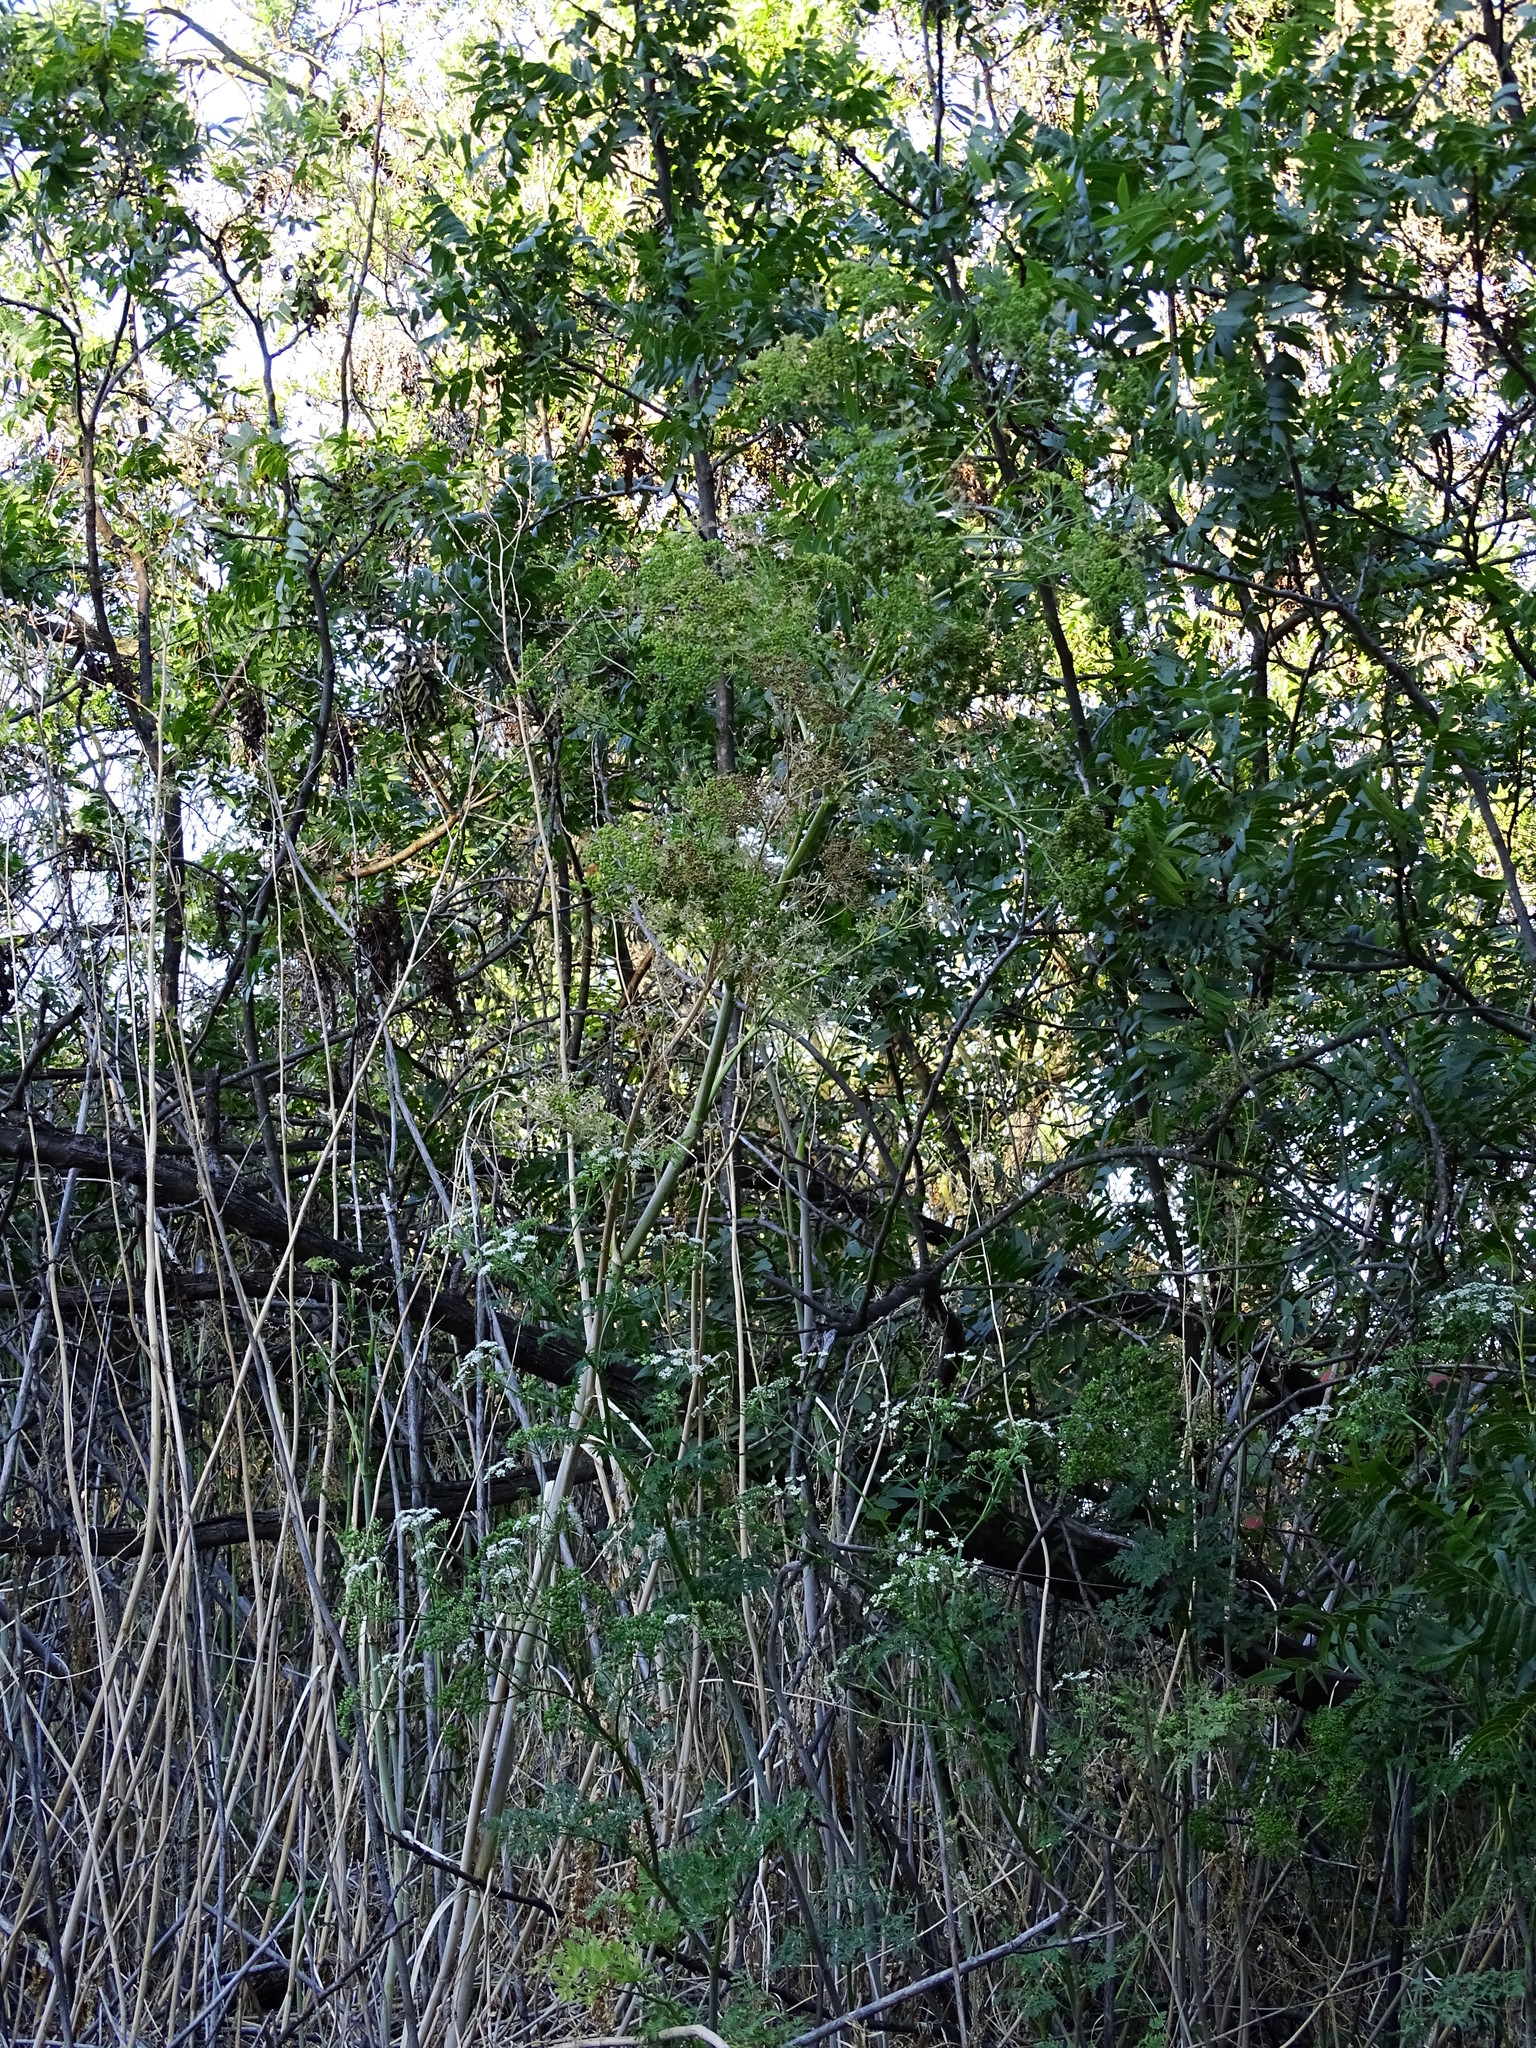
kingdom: Plantae
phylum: Tracheophyta
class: Magnoliopsida
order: Apiales
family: Apiaceae
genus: Conium
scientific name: Conium maculatum
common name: Hemlock
